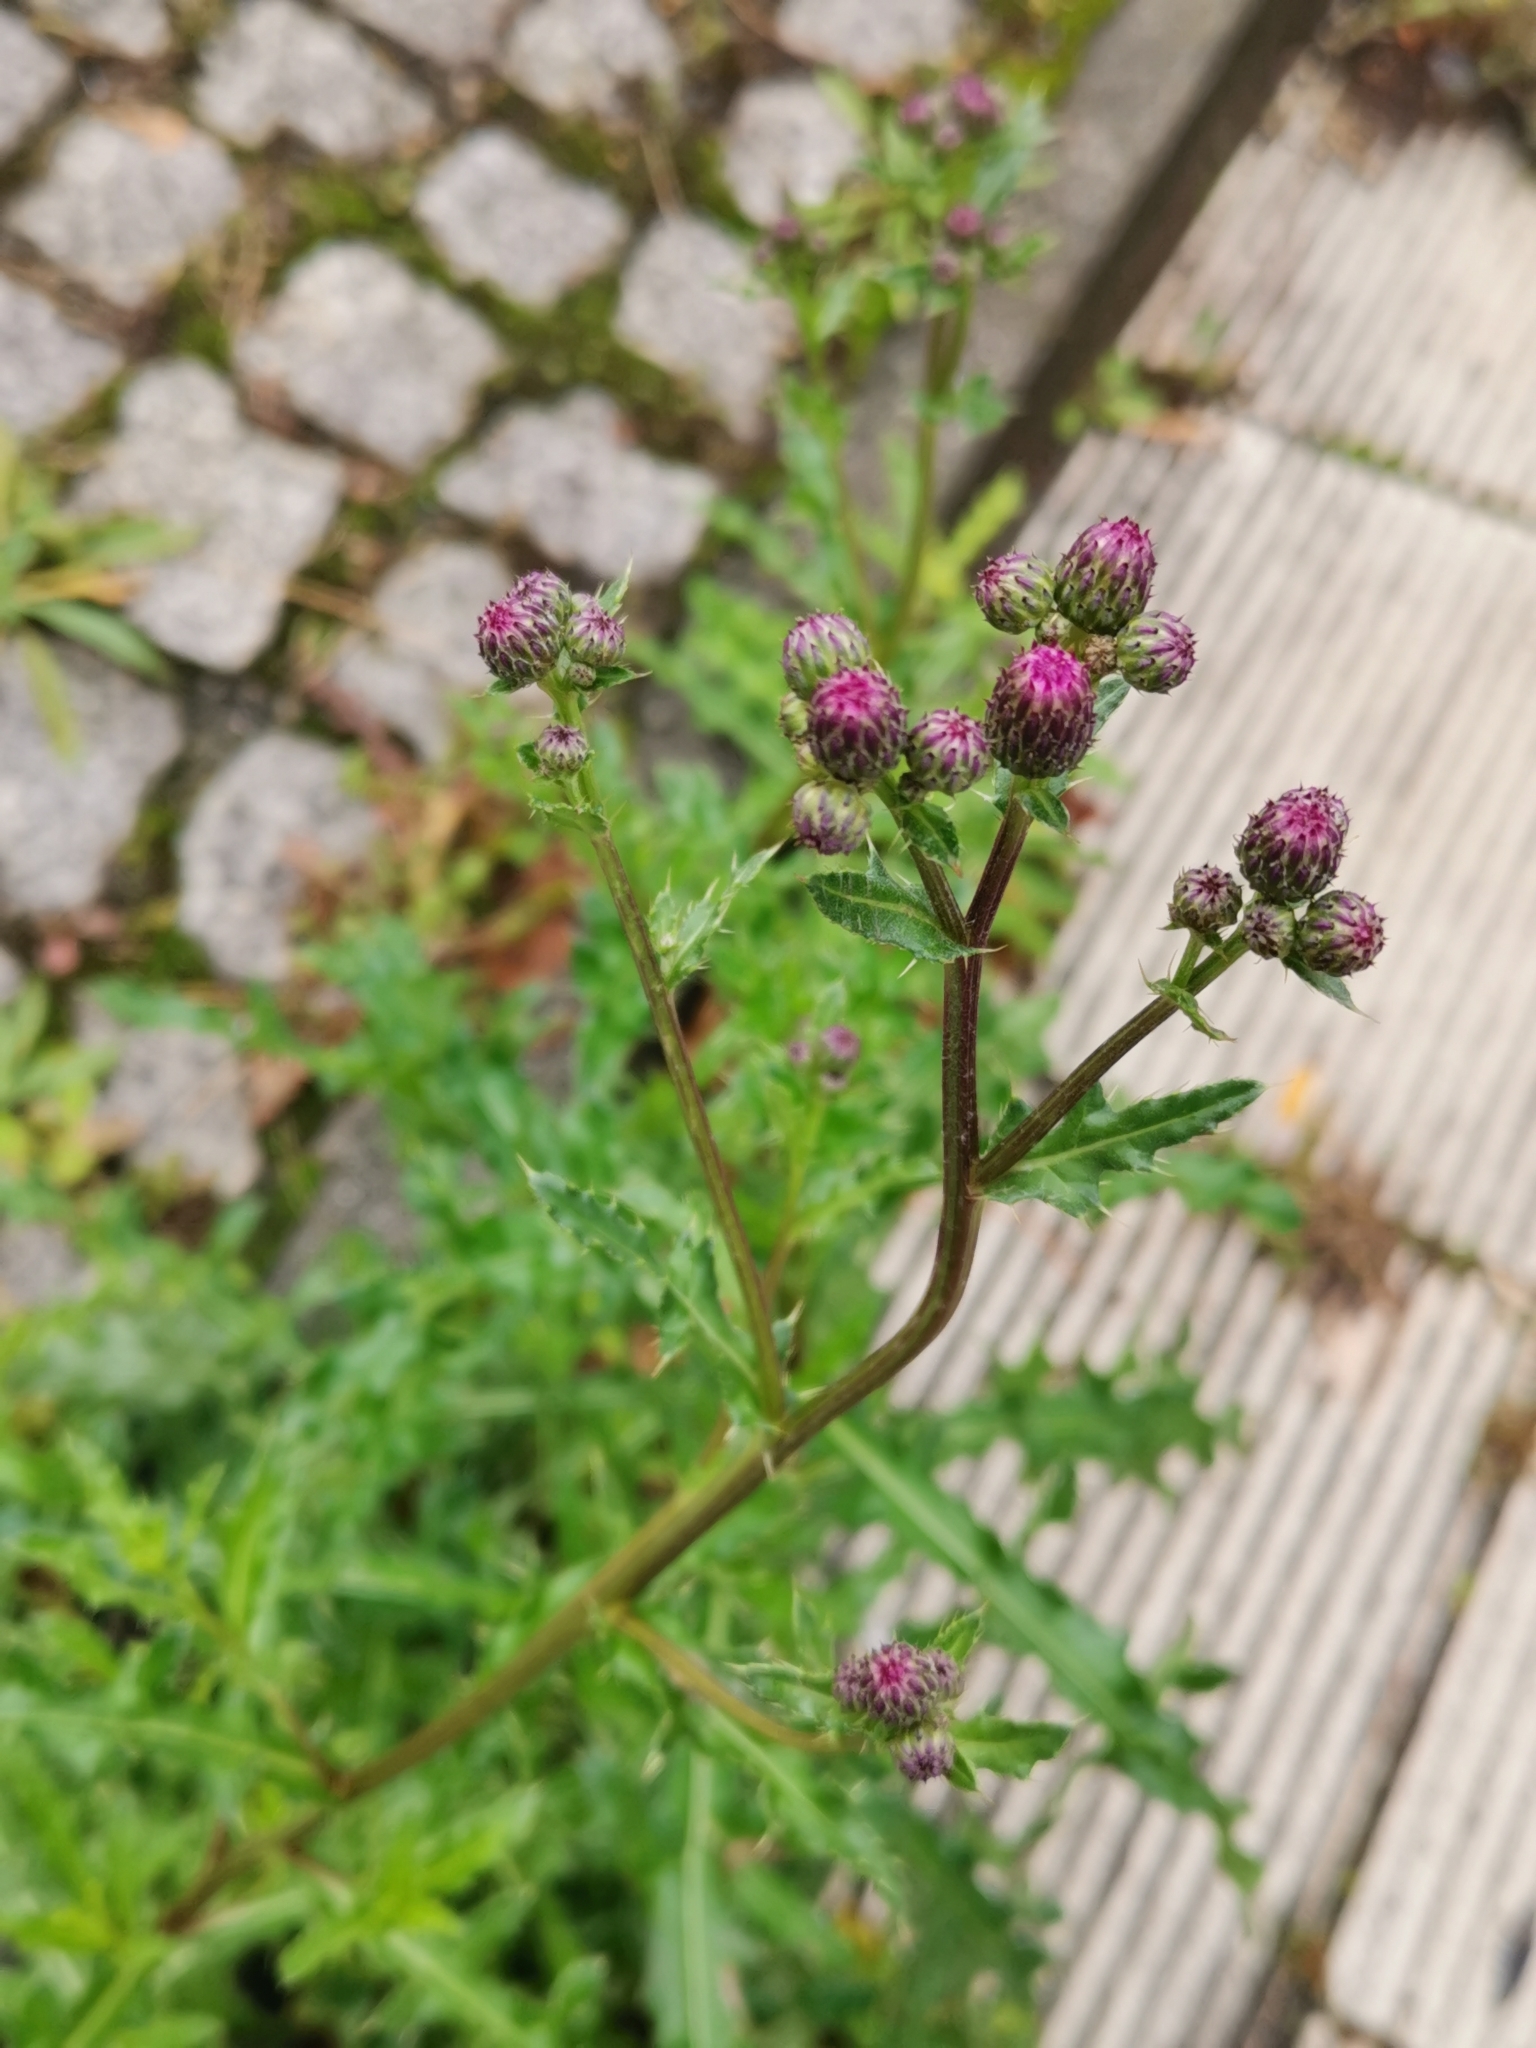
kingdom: Plantae
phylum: Tracheophyta
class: Magnoliopsida
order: Asterales
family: Asteraceae
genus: Cirsium
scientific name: Cirsium arvense
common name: Creeping thistle
